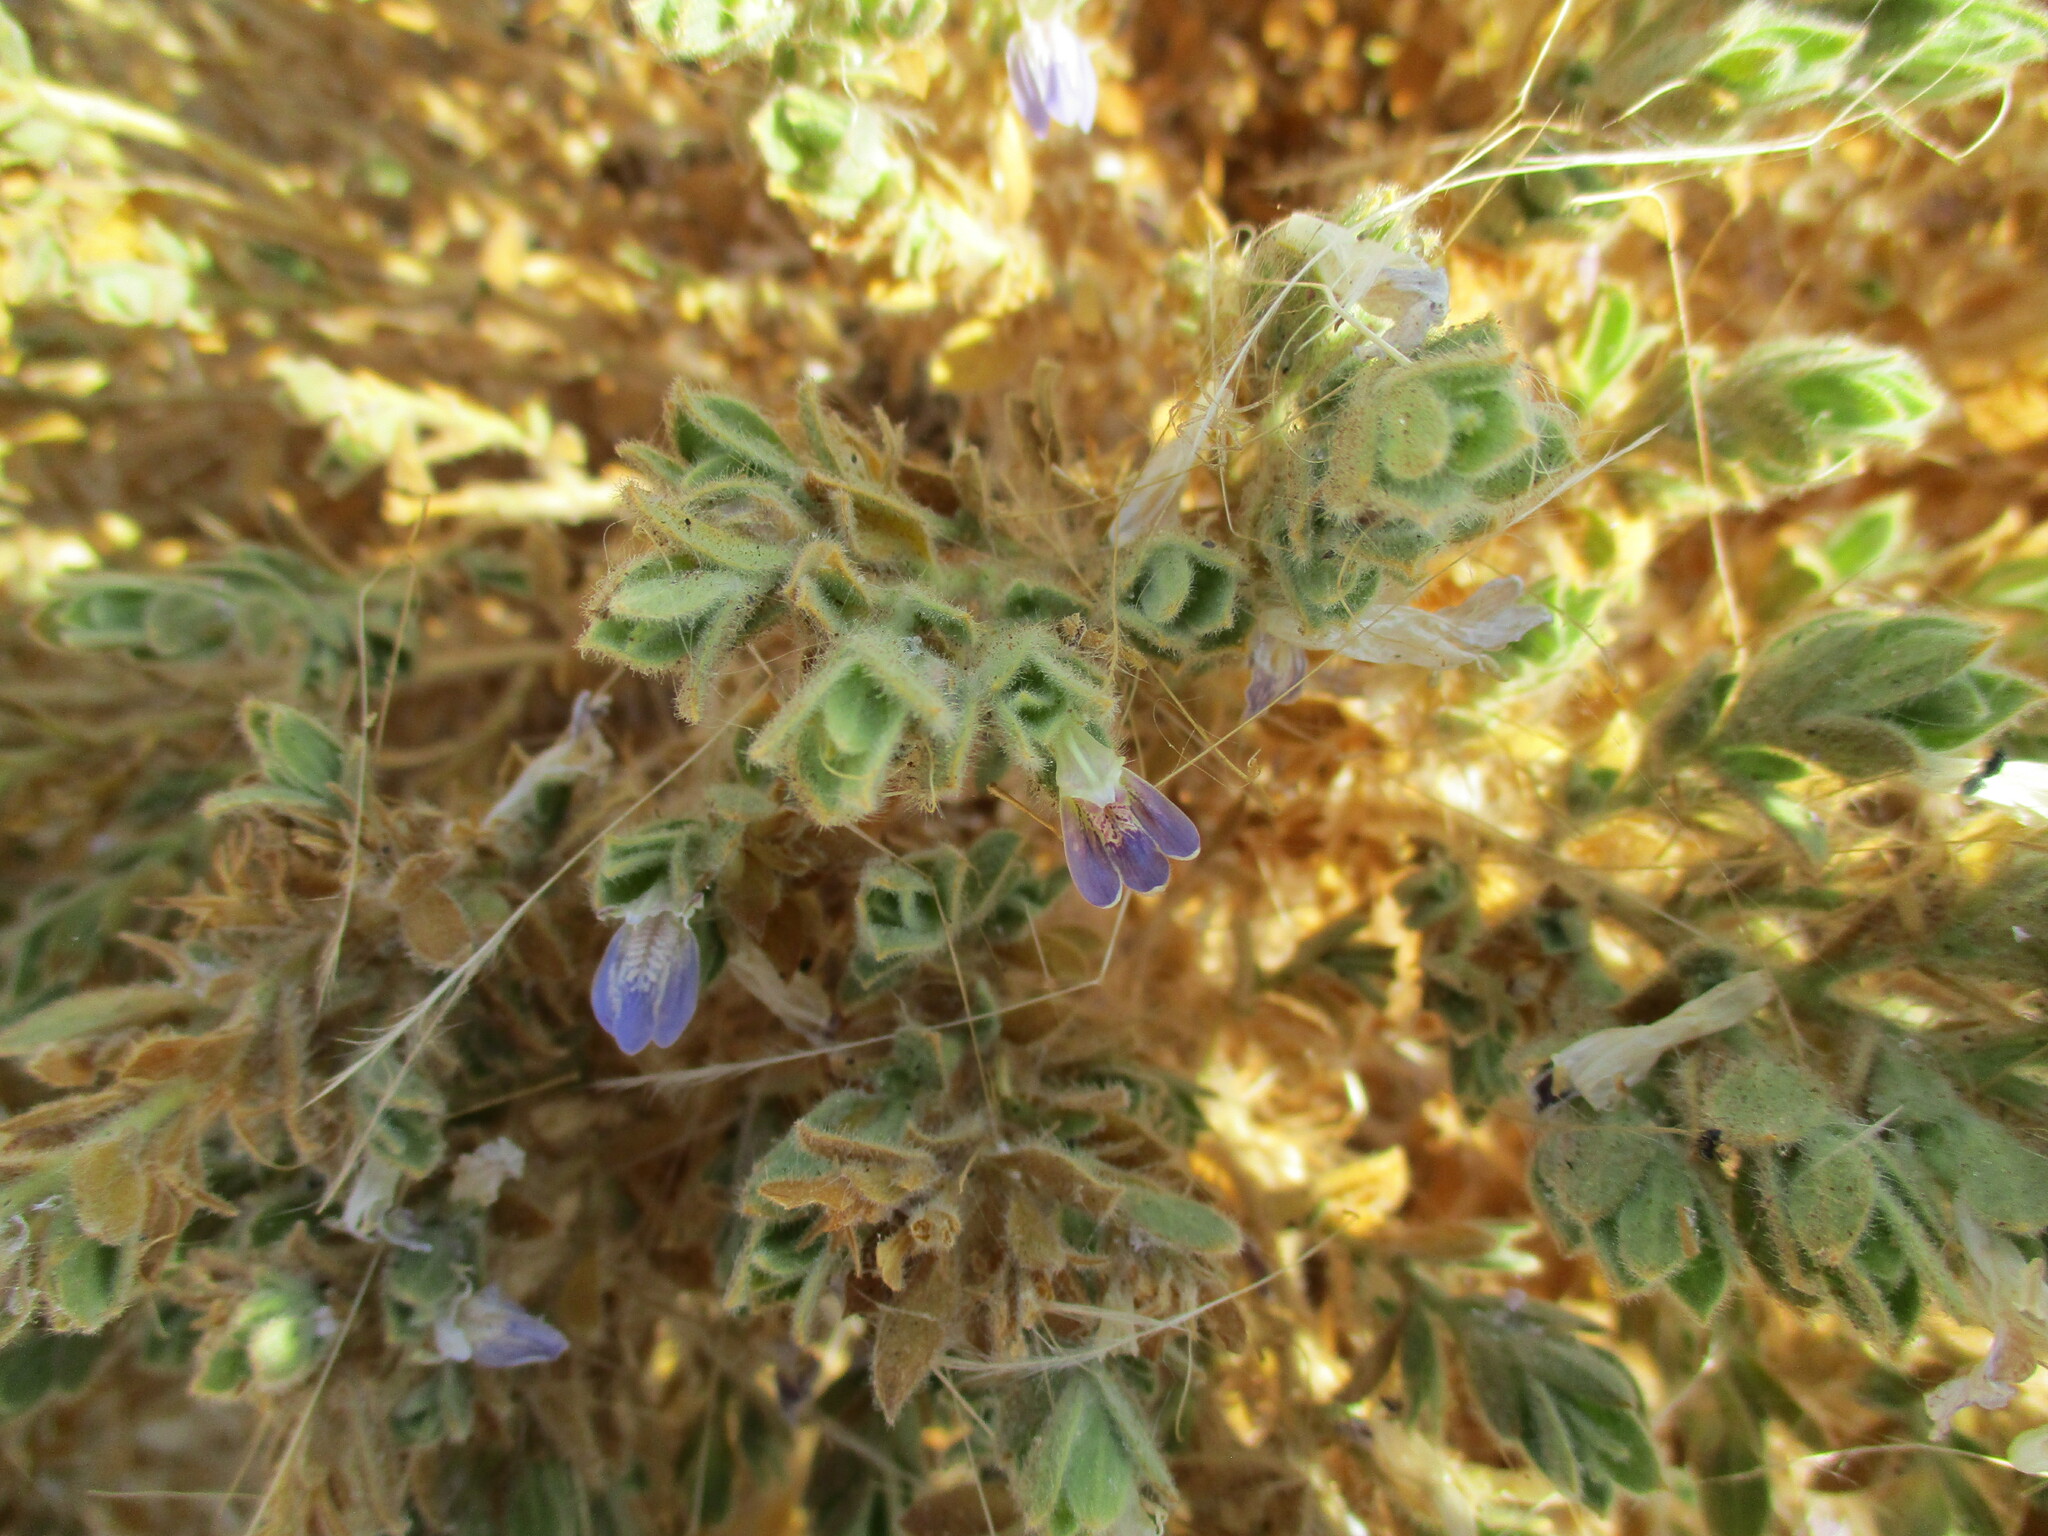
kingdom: Plantae
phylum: Tracheophyta
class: Magnoliopsida
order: Lamiales
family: Acanthaceae
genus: Pogonospermum
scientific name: Pogonospermum
